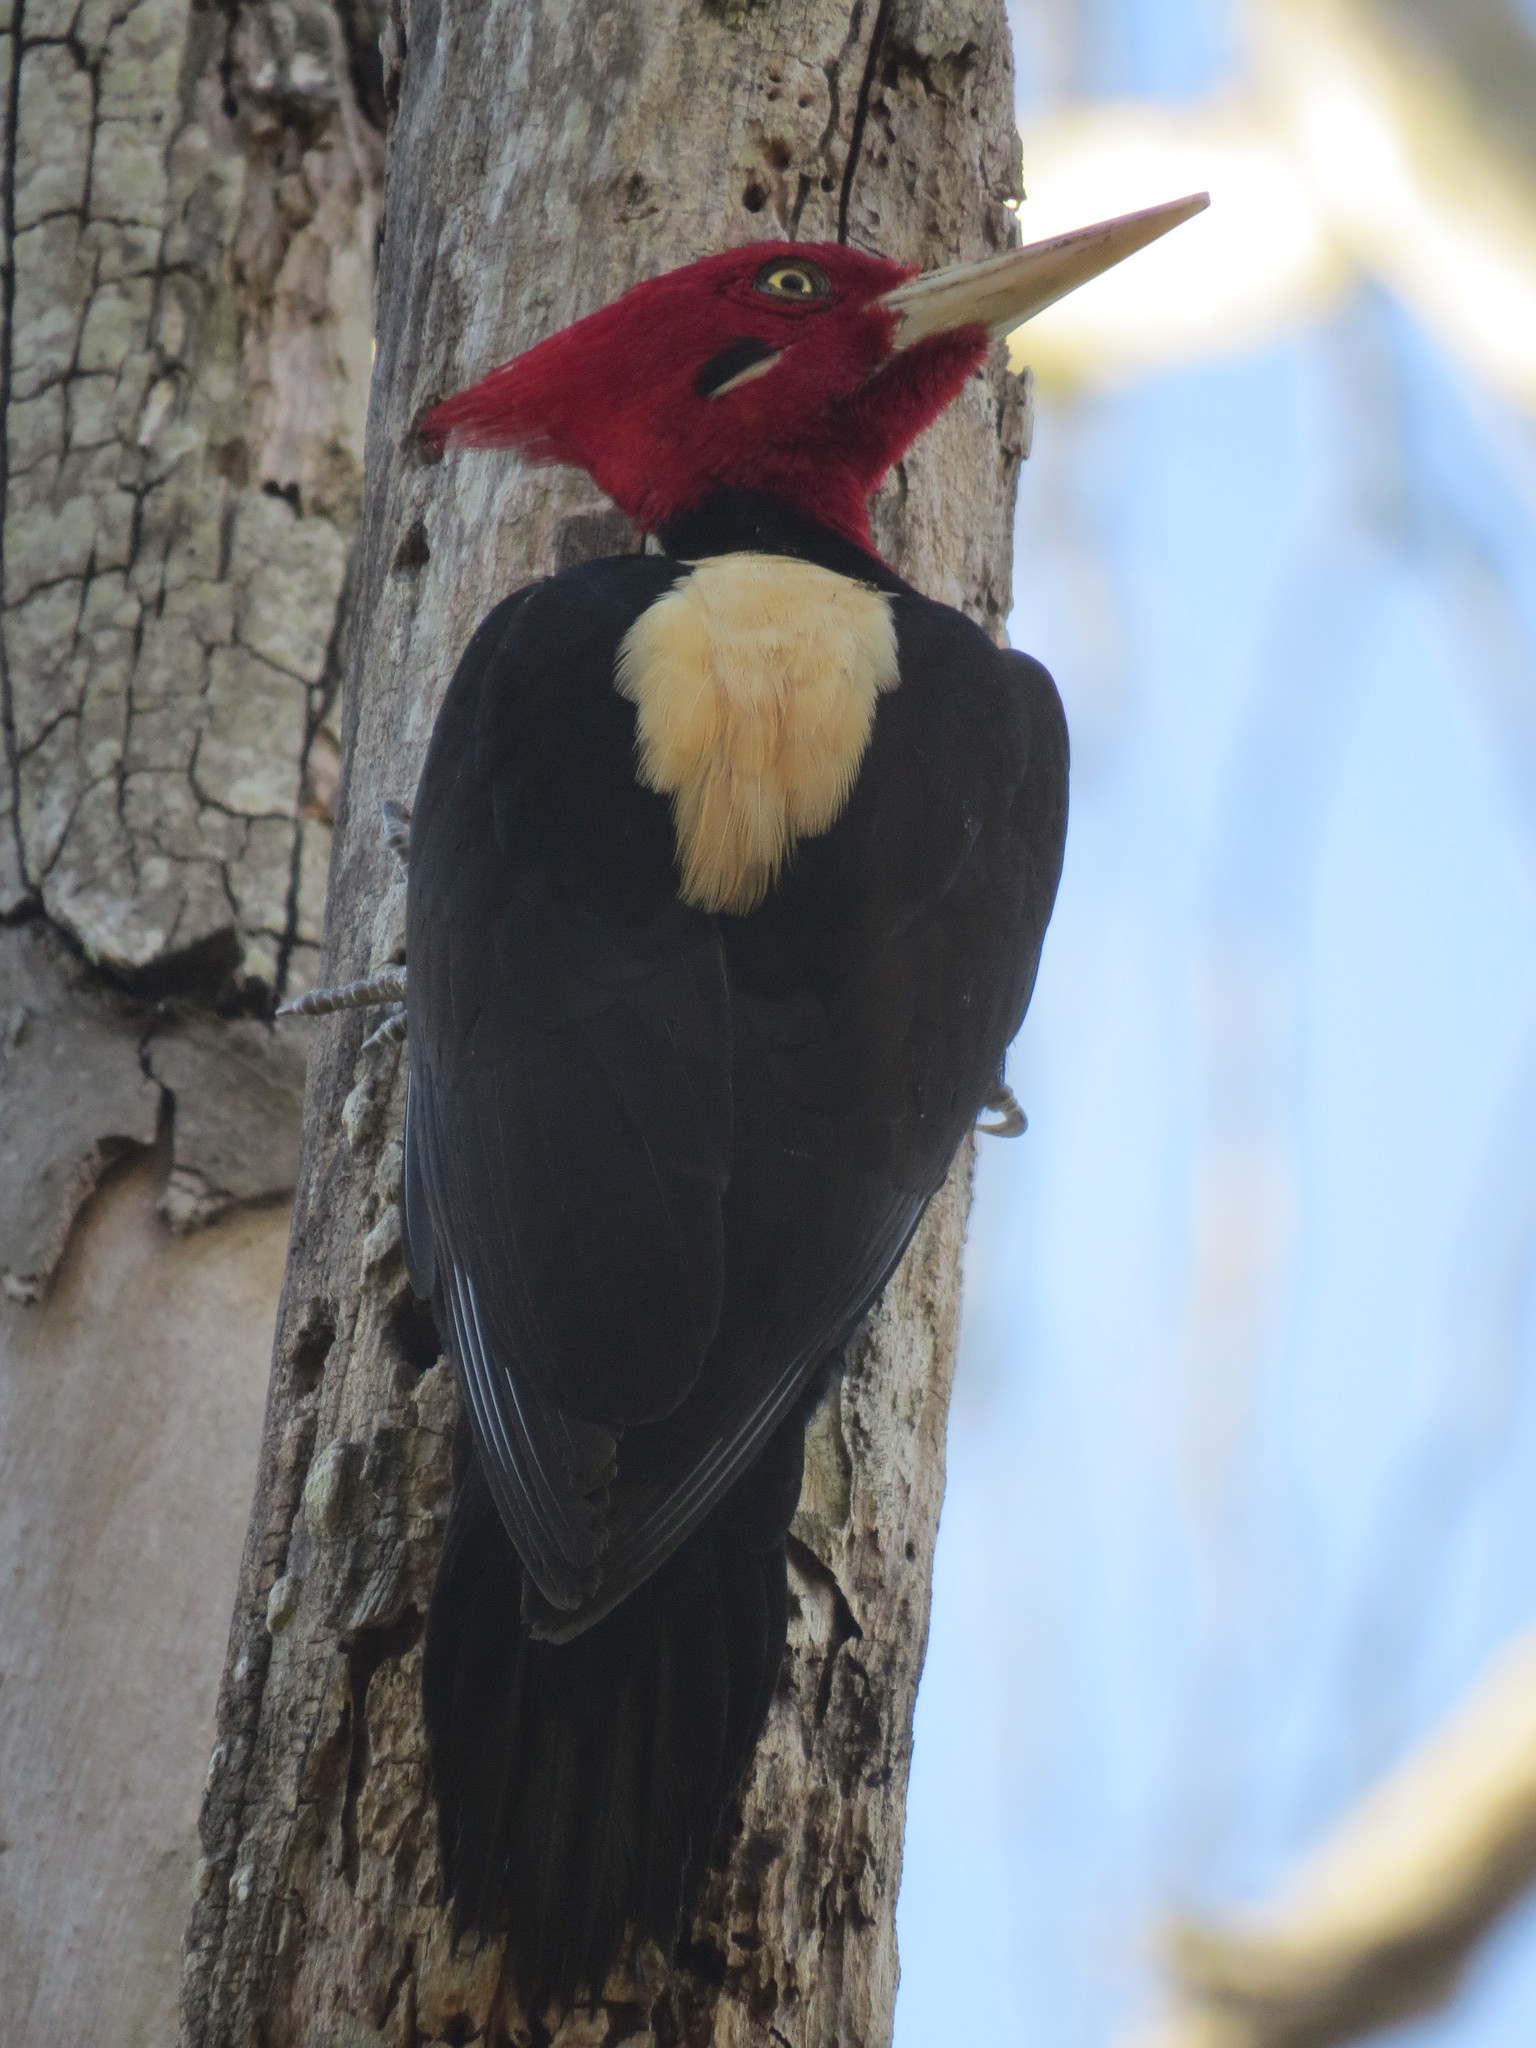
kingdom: Animalia
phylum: Chordata
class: Aves
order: Piciformes
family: Picidae
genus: Campephilus
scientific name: Campephilus leucopogon
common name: Cream-backed woodpecker
